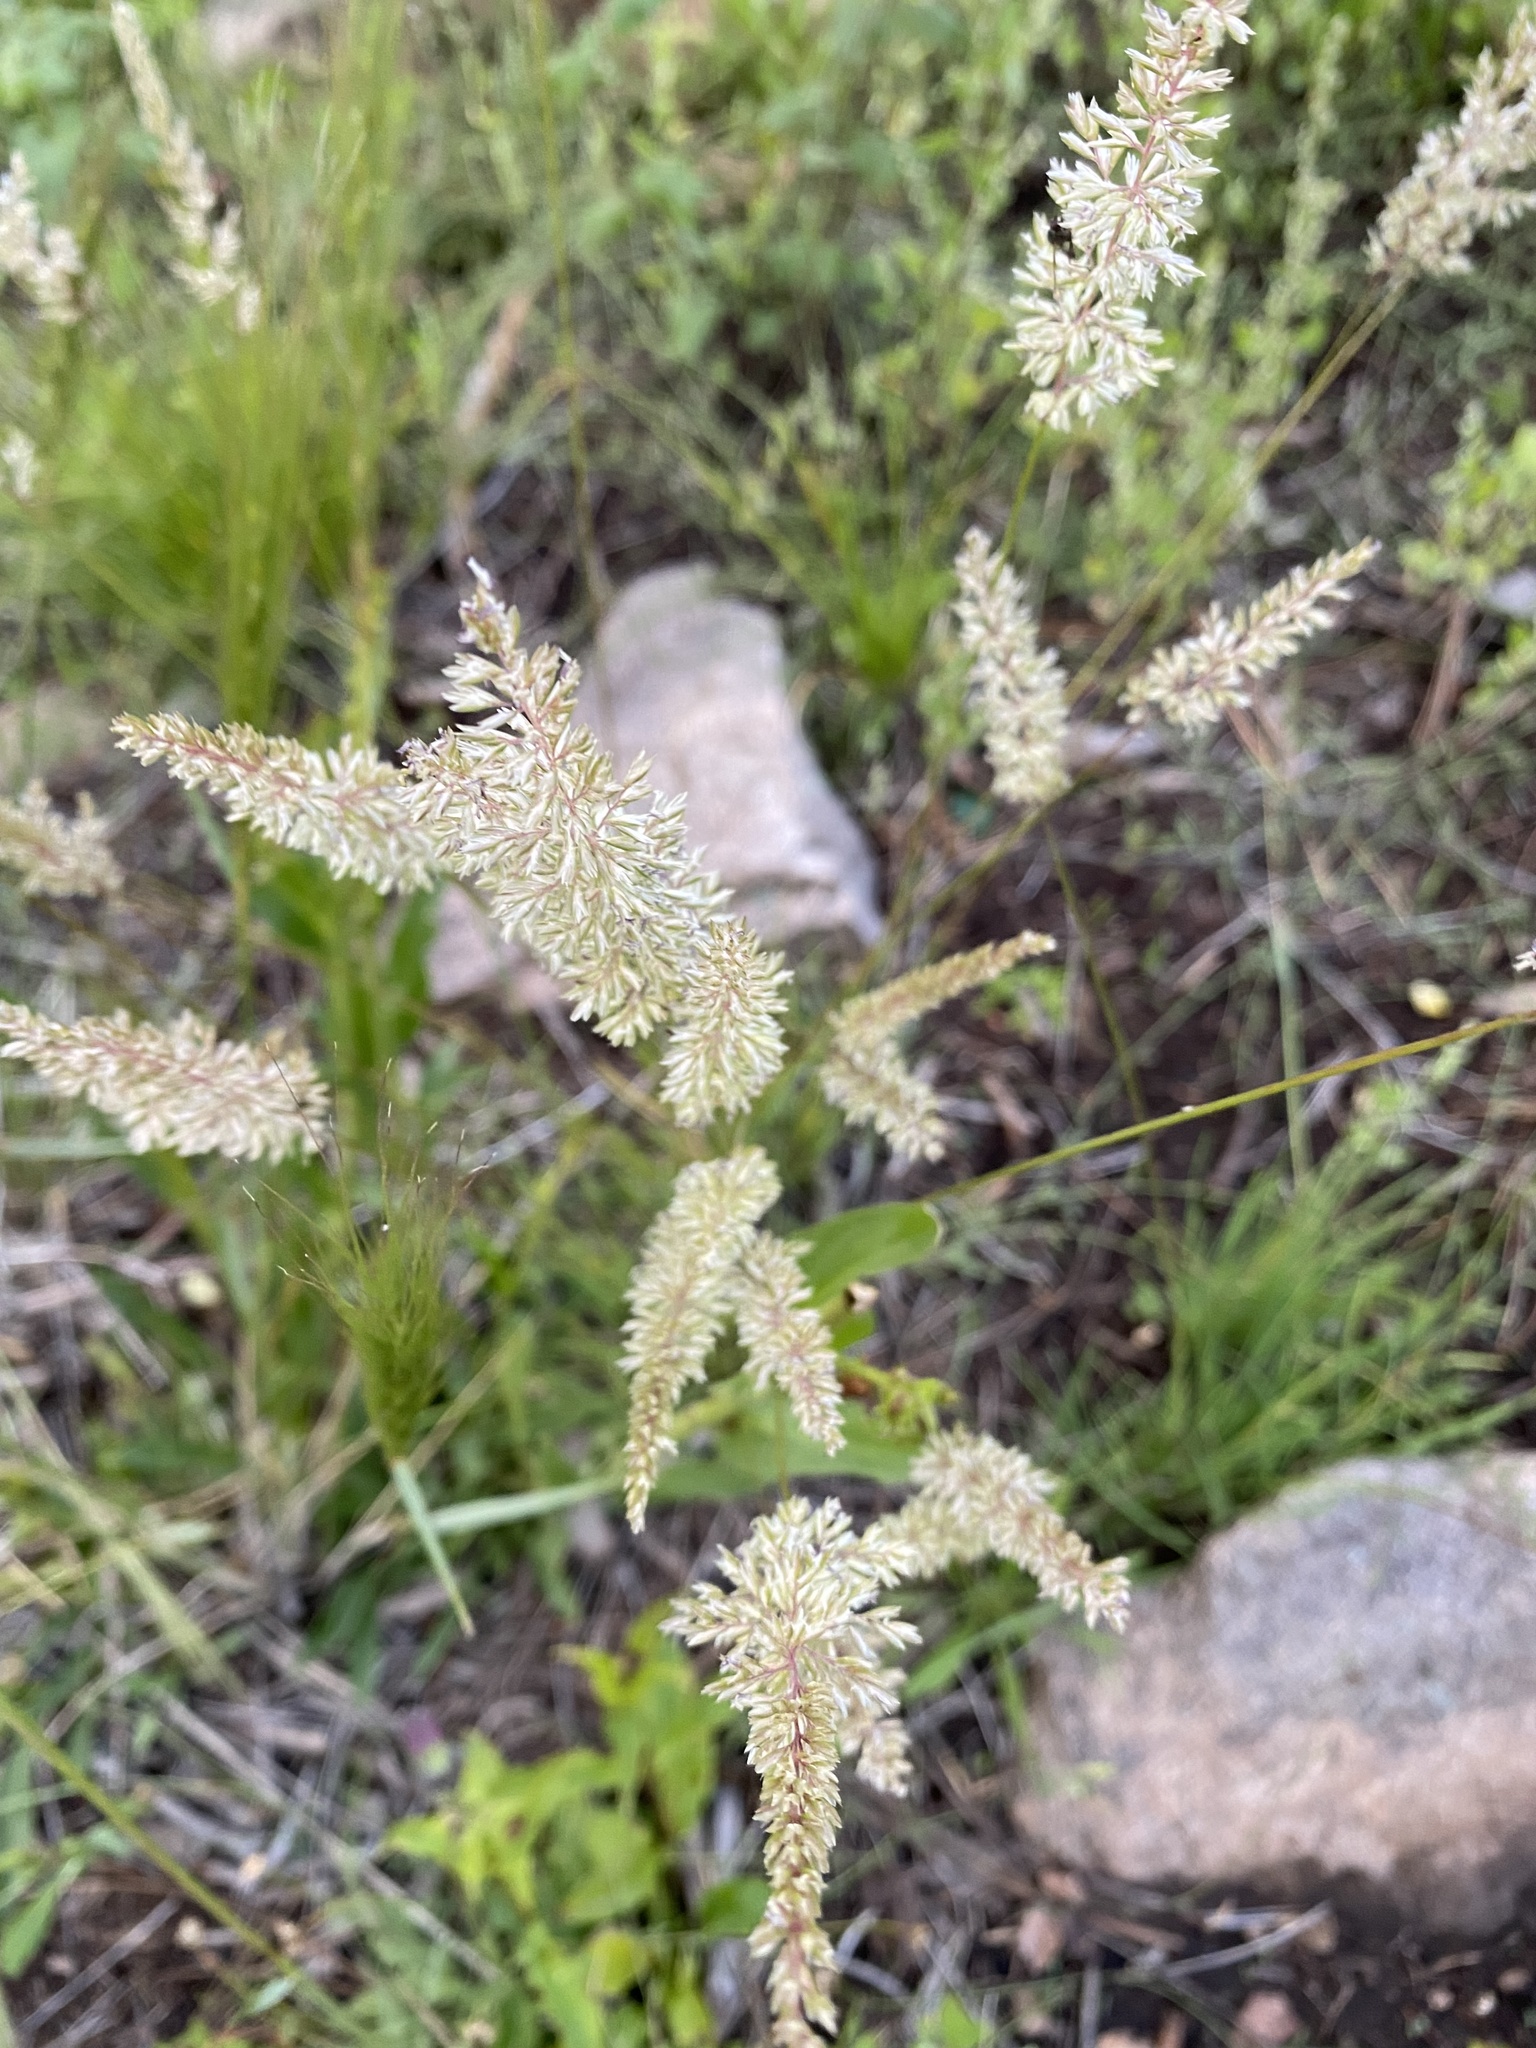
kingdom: Plantae
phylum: Tracheophyta
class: Liliopsida
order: Poales
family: Poaceae
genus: Koeleria
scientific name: Koeleria macrantha
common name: Crested hair-grass
